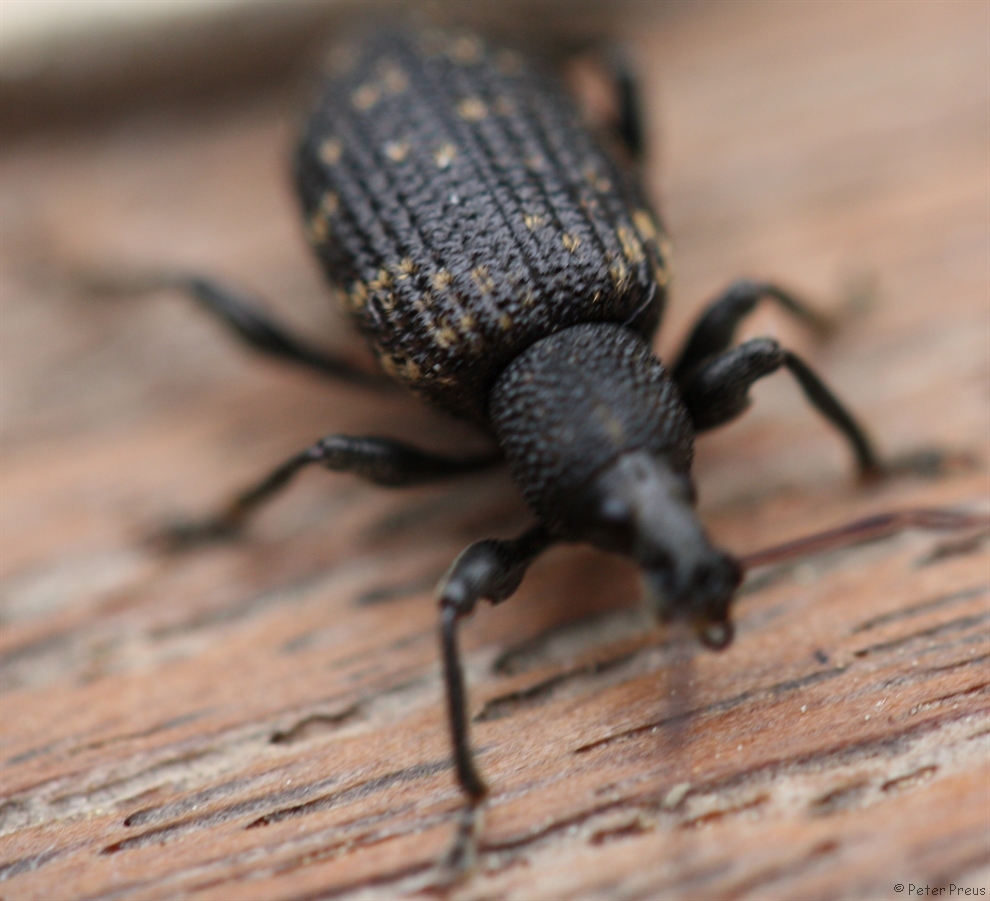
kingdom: Animalia
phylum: Arthropoda
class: Insecta
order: Coleoptera
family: Curculionidae
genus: Otiorhynchus
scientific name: Otiorhynchus sulcatus
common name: Black vine weevil
